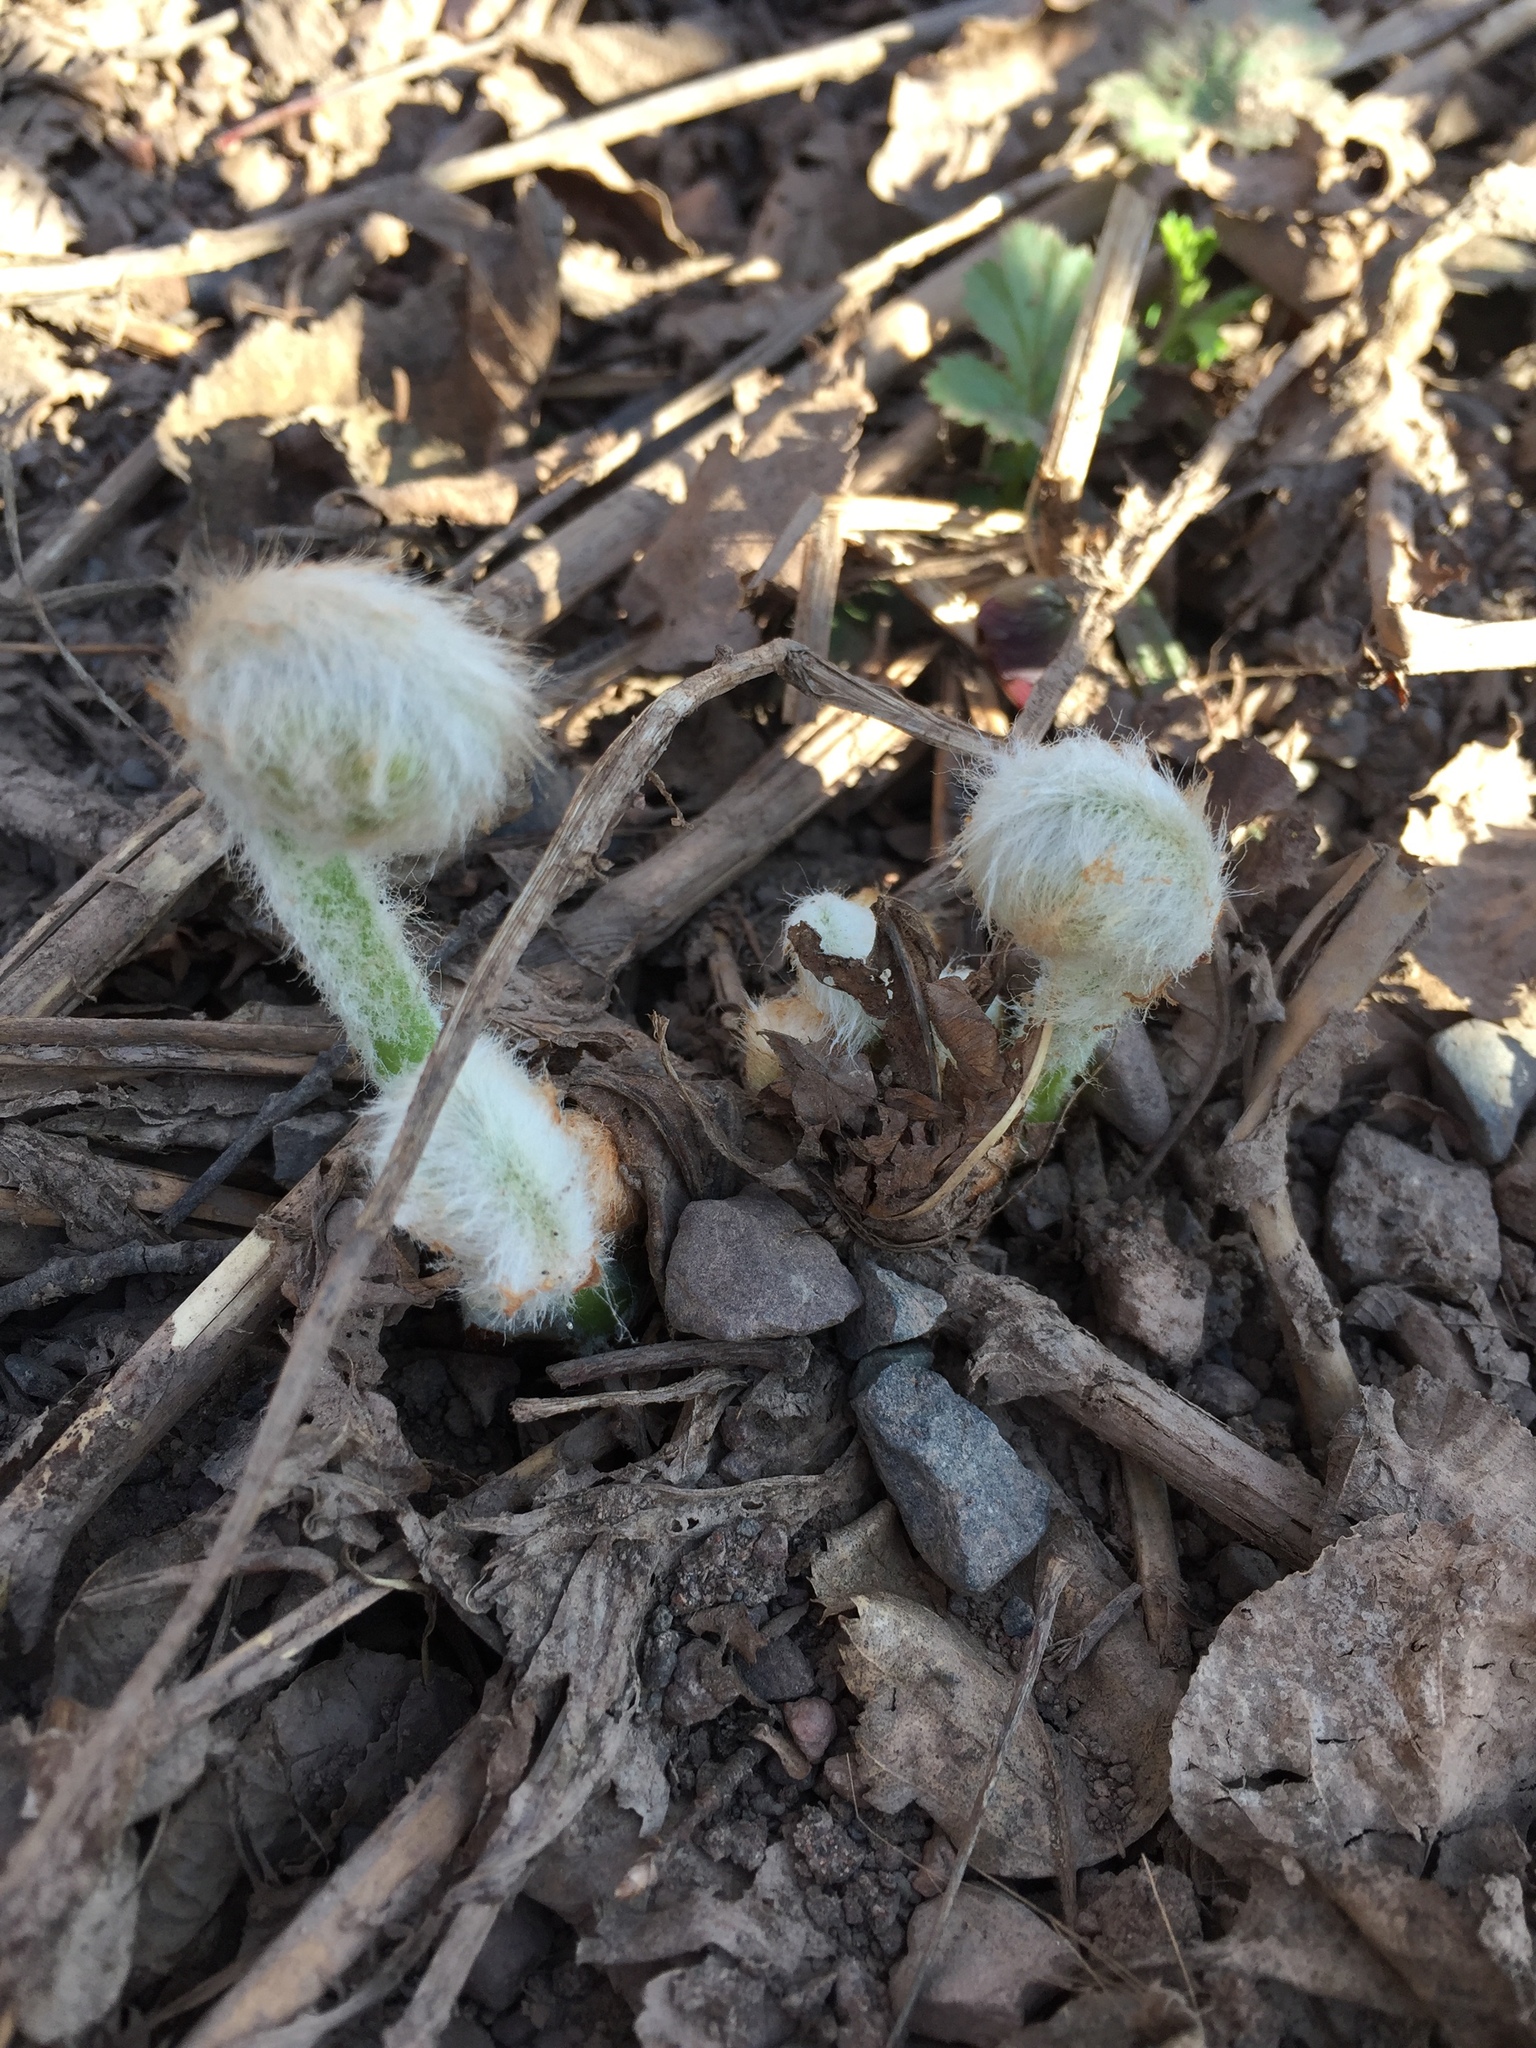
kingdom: Plantae
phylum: Tracheophyta
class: Polypodiopsida
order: Osmundales
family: Osmundaceae
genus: Claytosmunda
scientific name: Claytosmunda claytoniana
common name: Clayton's fern
